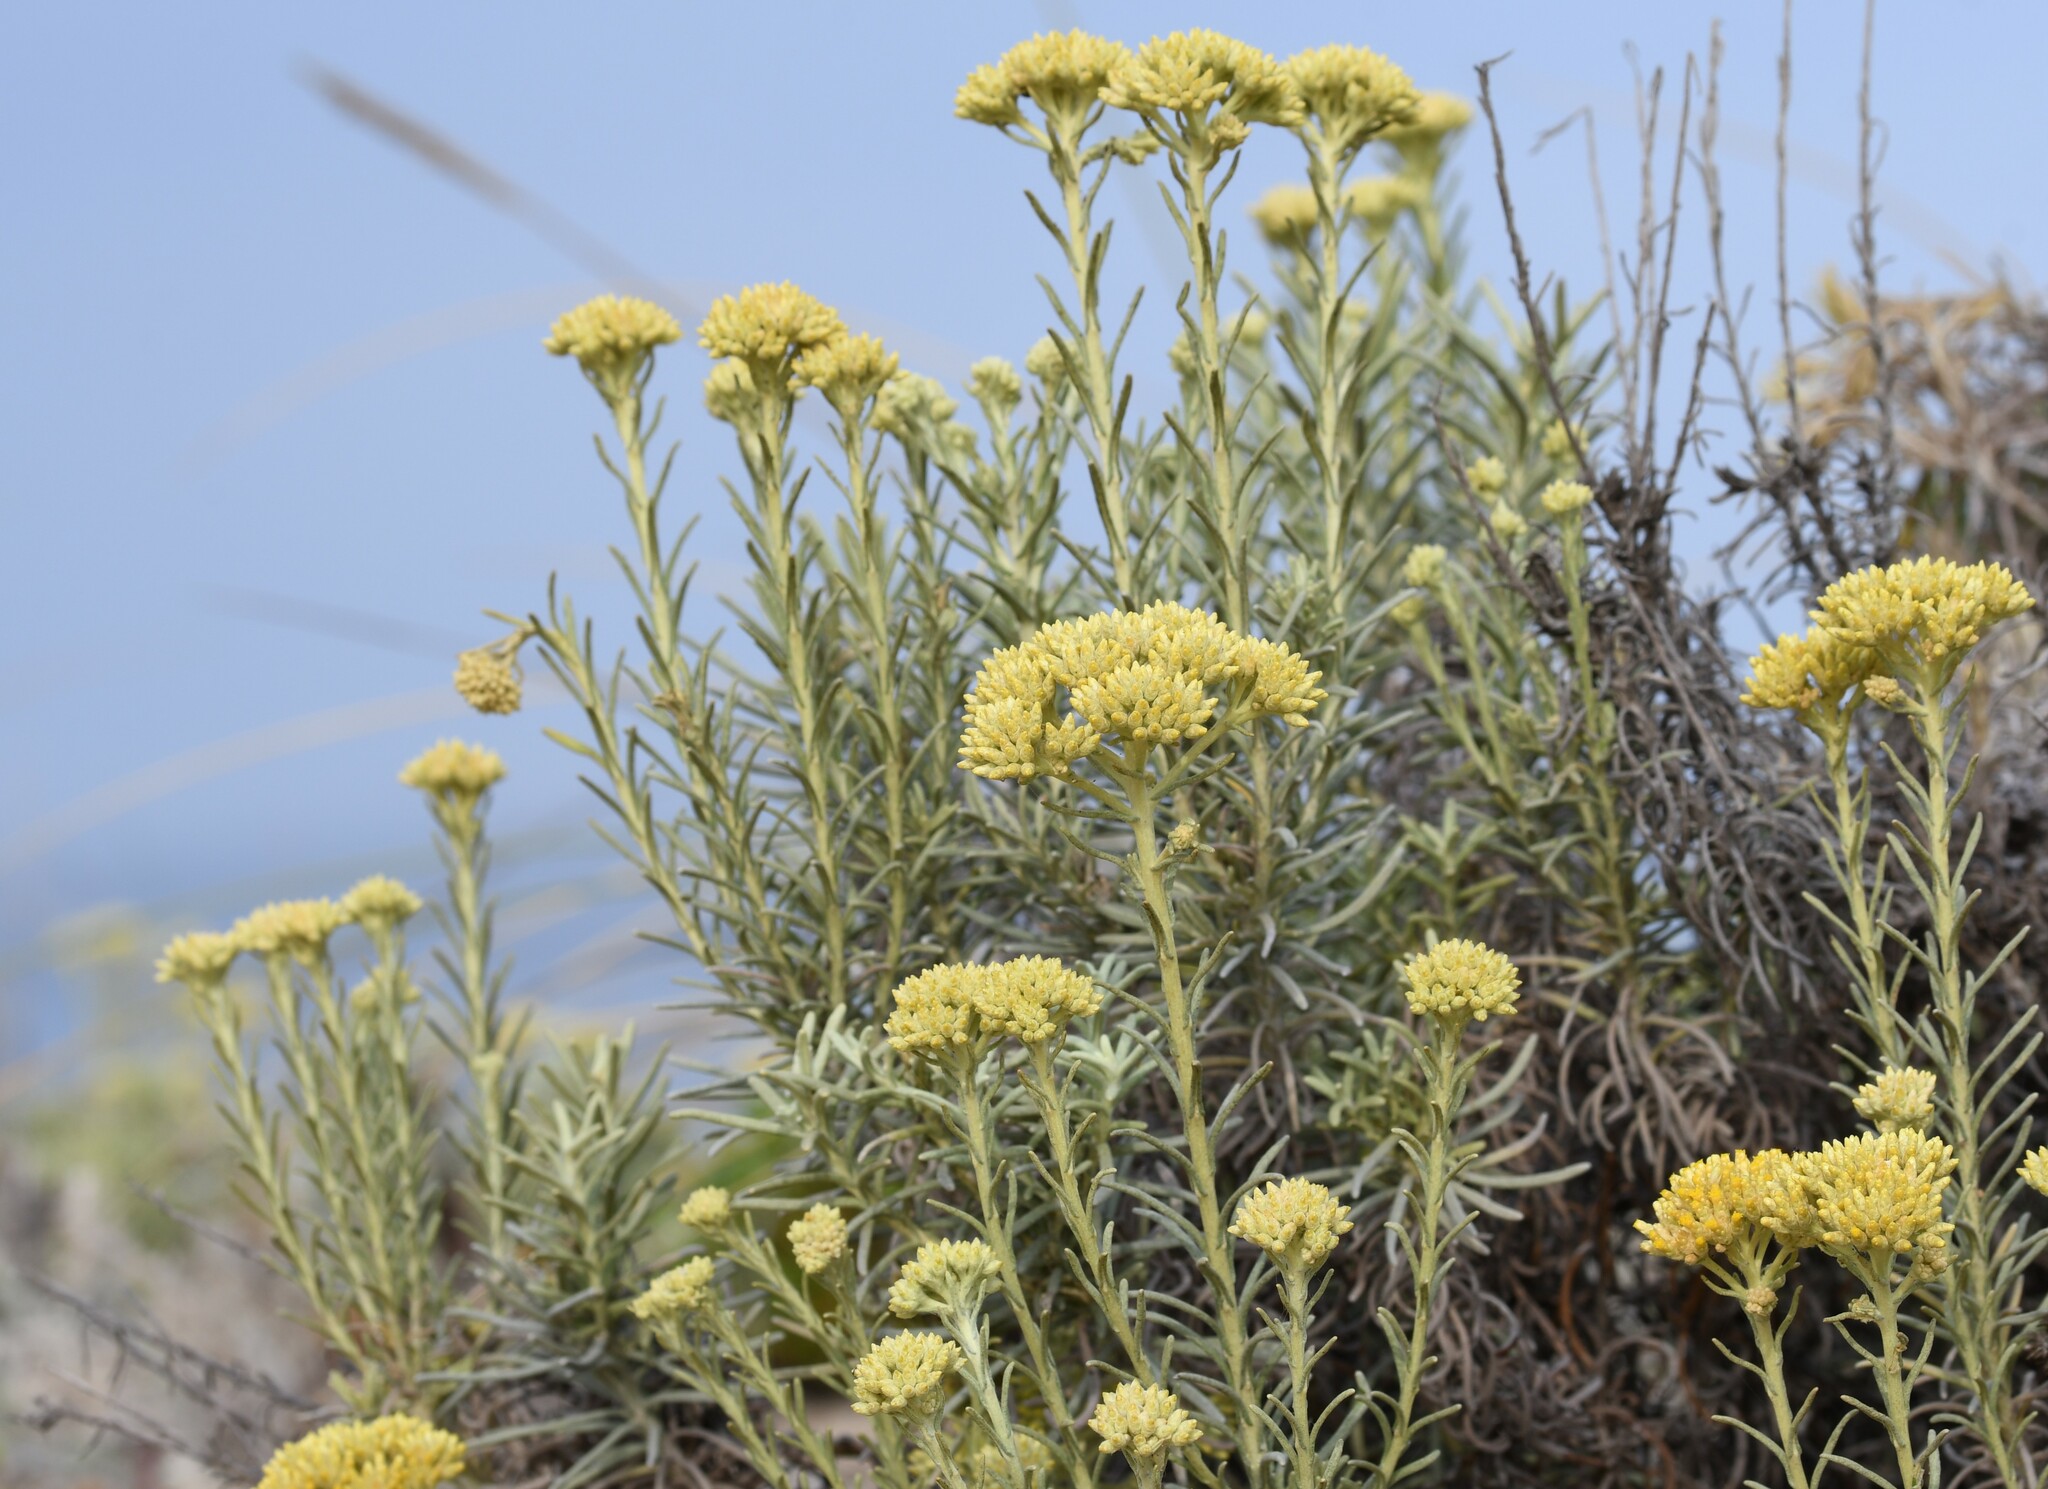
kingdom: Plantae
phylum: Tracheophyta
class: Magnoliopsida
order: Asterales
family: Asteraceae
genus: Helichrysum
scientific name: Helichrysum serotinum
